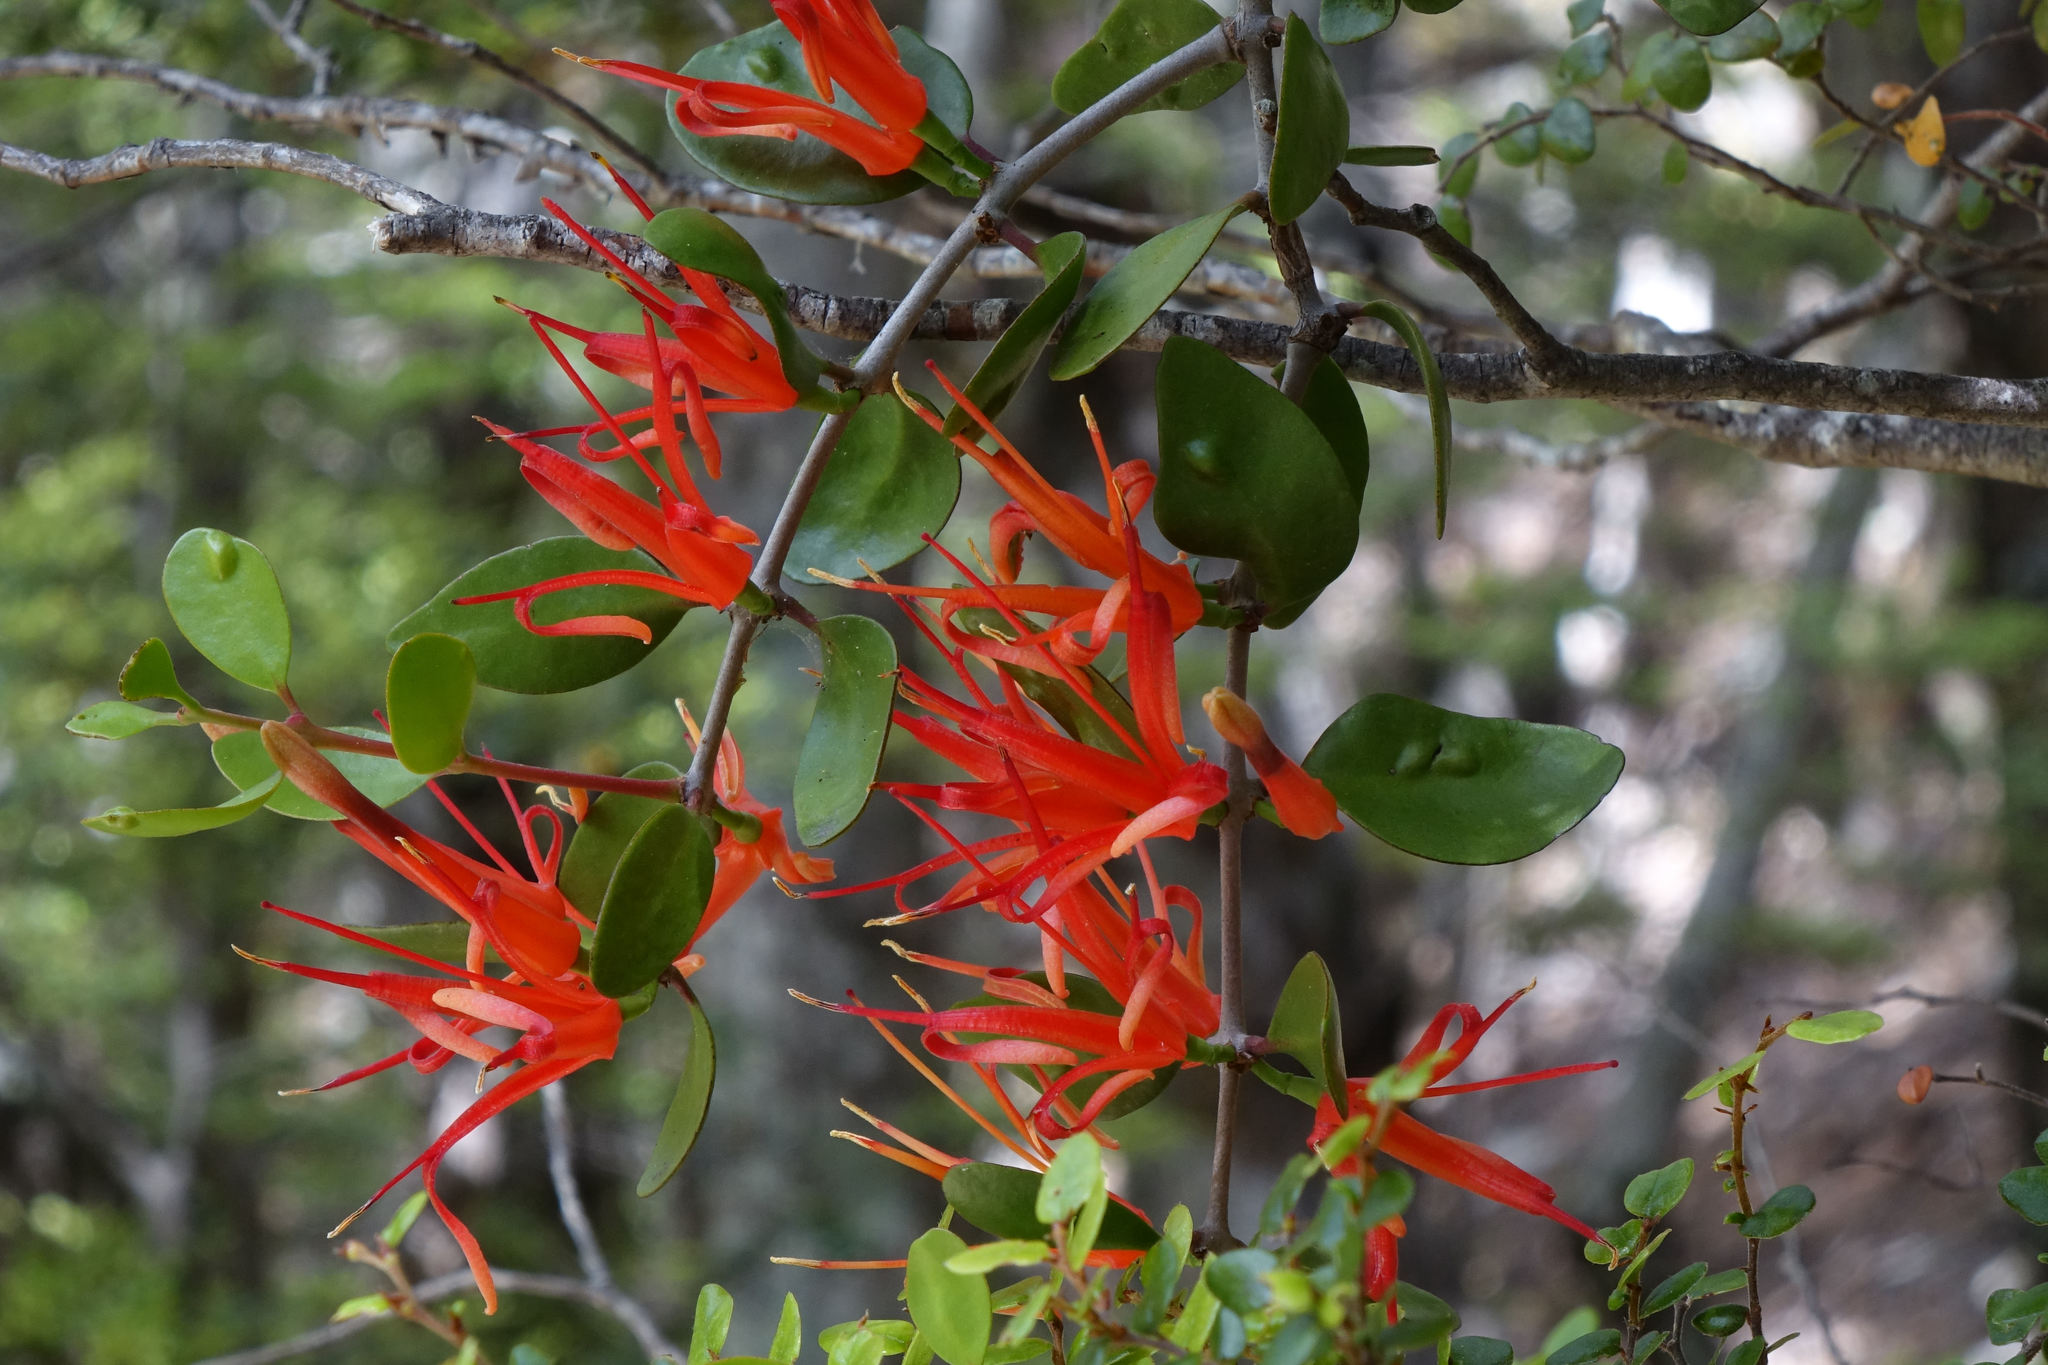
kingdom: Plantae
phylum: Tracheophyta
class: Magnoliopsida
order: Santalales
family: Loranthaceae
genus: Peraxilla
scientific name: Peraxilla tetrapetala
